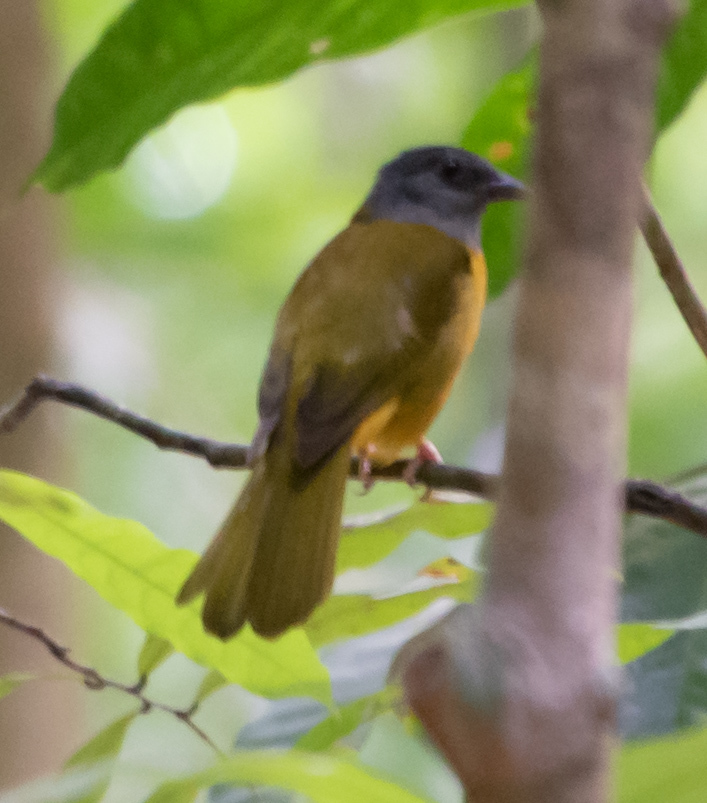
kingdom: Animalia
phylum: Chordata
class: Aves
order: Passeriformes
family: Thraupidae
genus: Eucometis
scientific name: Eucometis penicillata
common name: Grey-headed tanager
